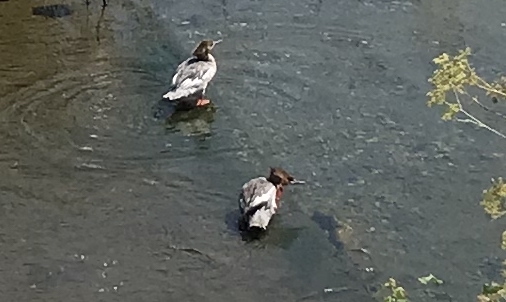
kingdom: Animalia
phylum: Chordata
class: Aves
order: Anseriformes
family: Anatidae
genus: Mergus
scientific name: Mergus merganser
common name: Common merganser
